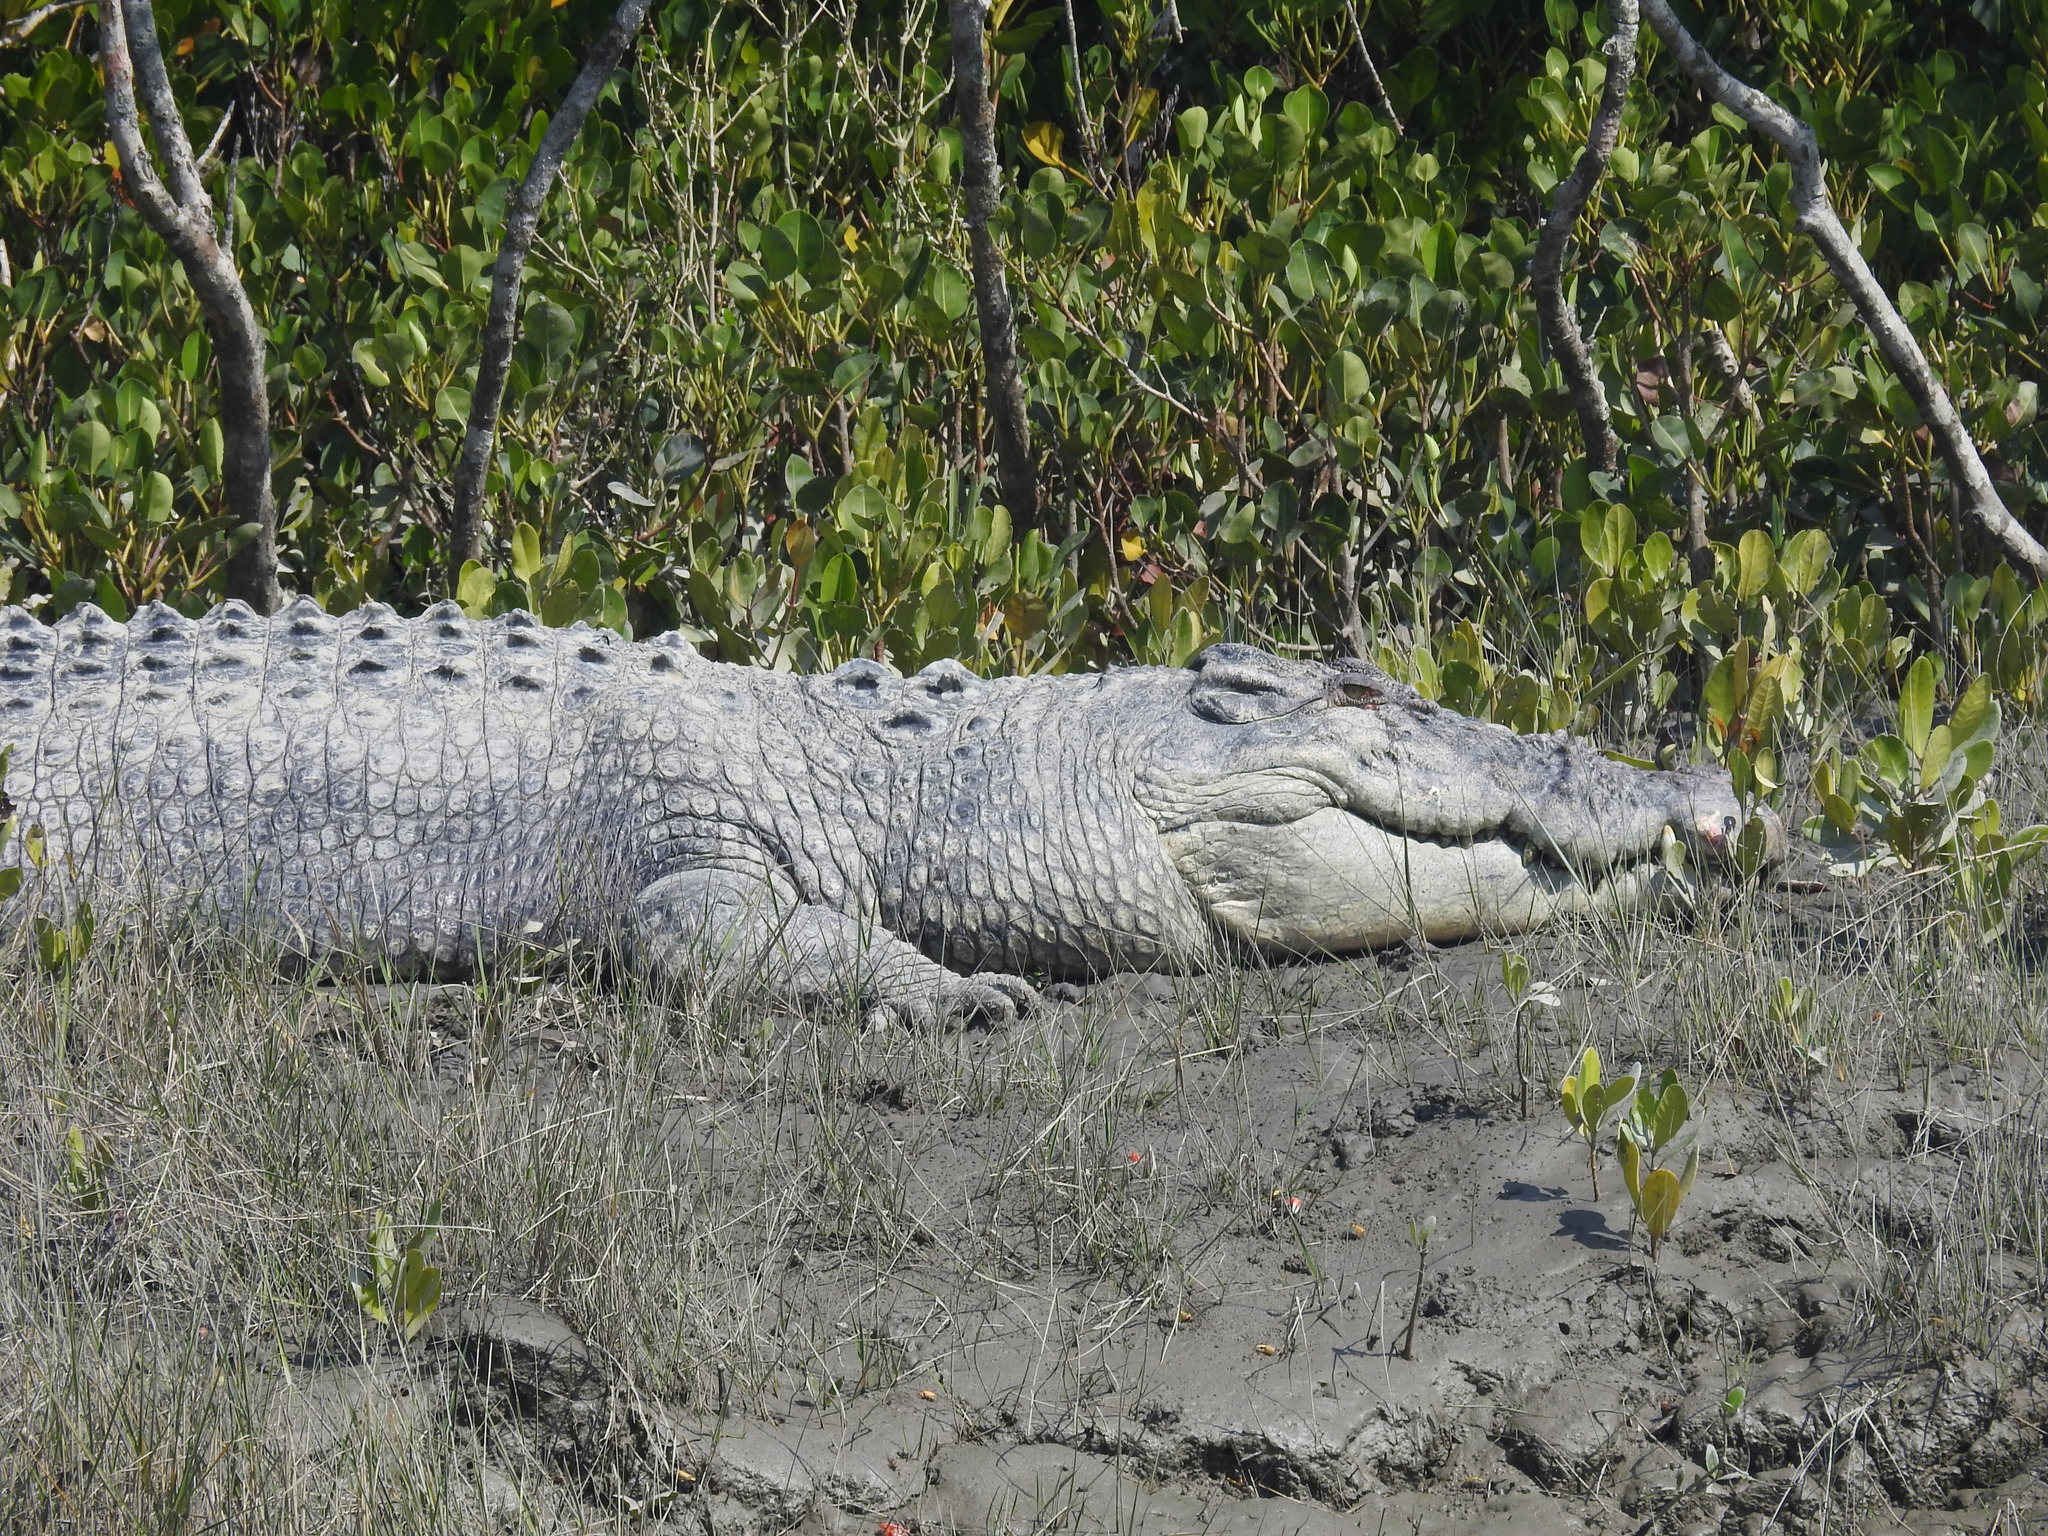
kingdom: Animalia
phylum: Chordata
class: Crocodylia
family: Crocodylidae
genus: Crocodylus
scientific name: Crocodylus porosus
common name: Saltwater crocodile
